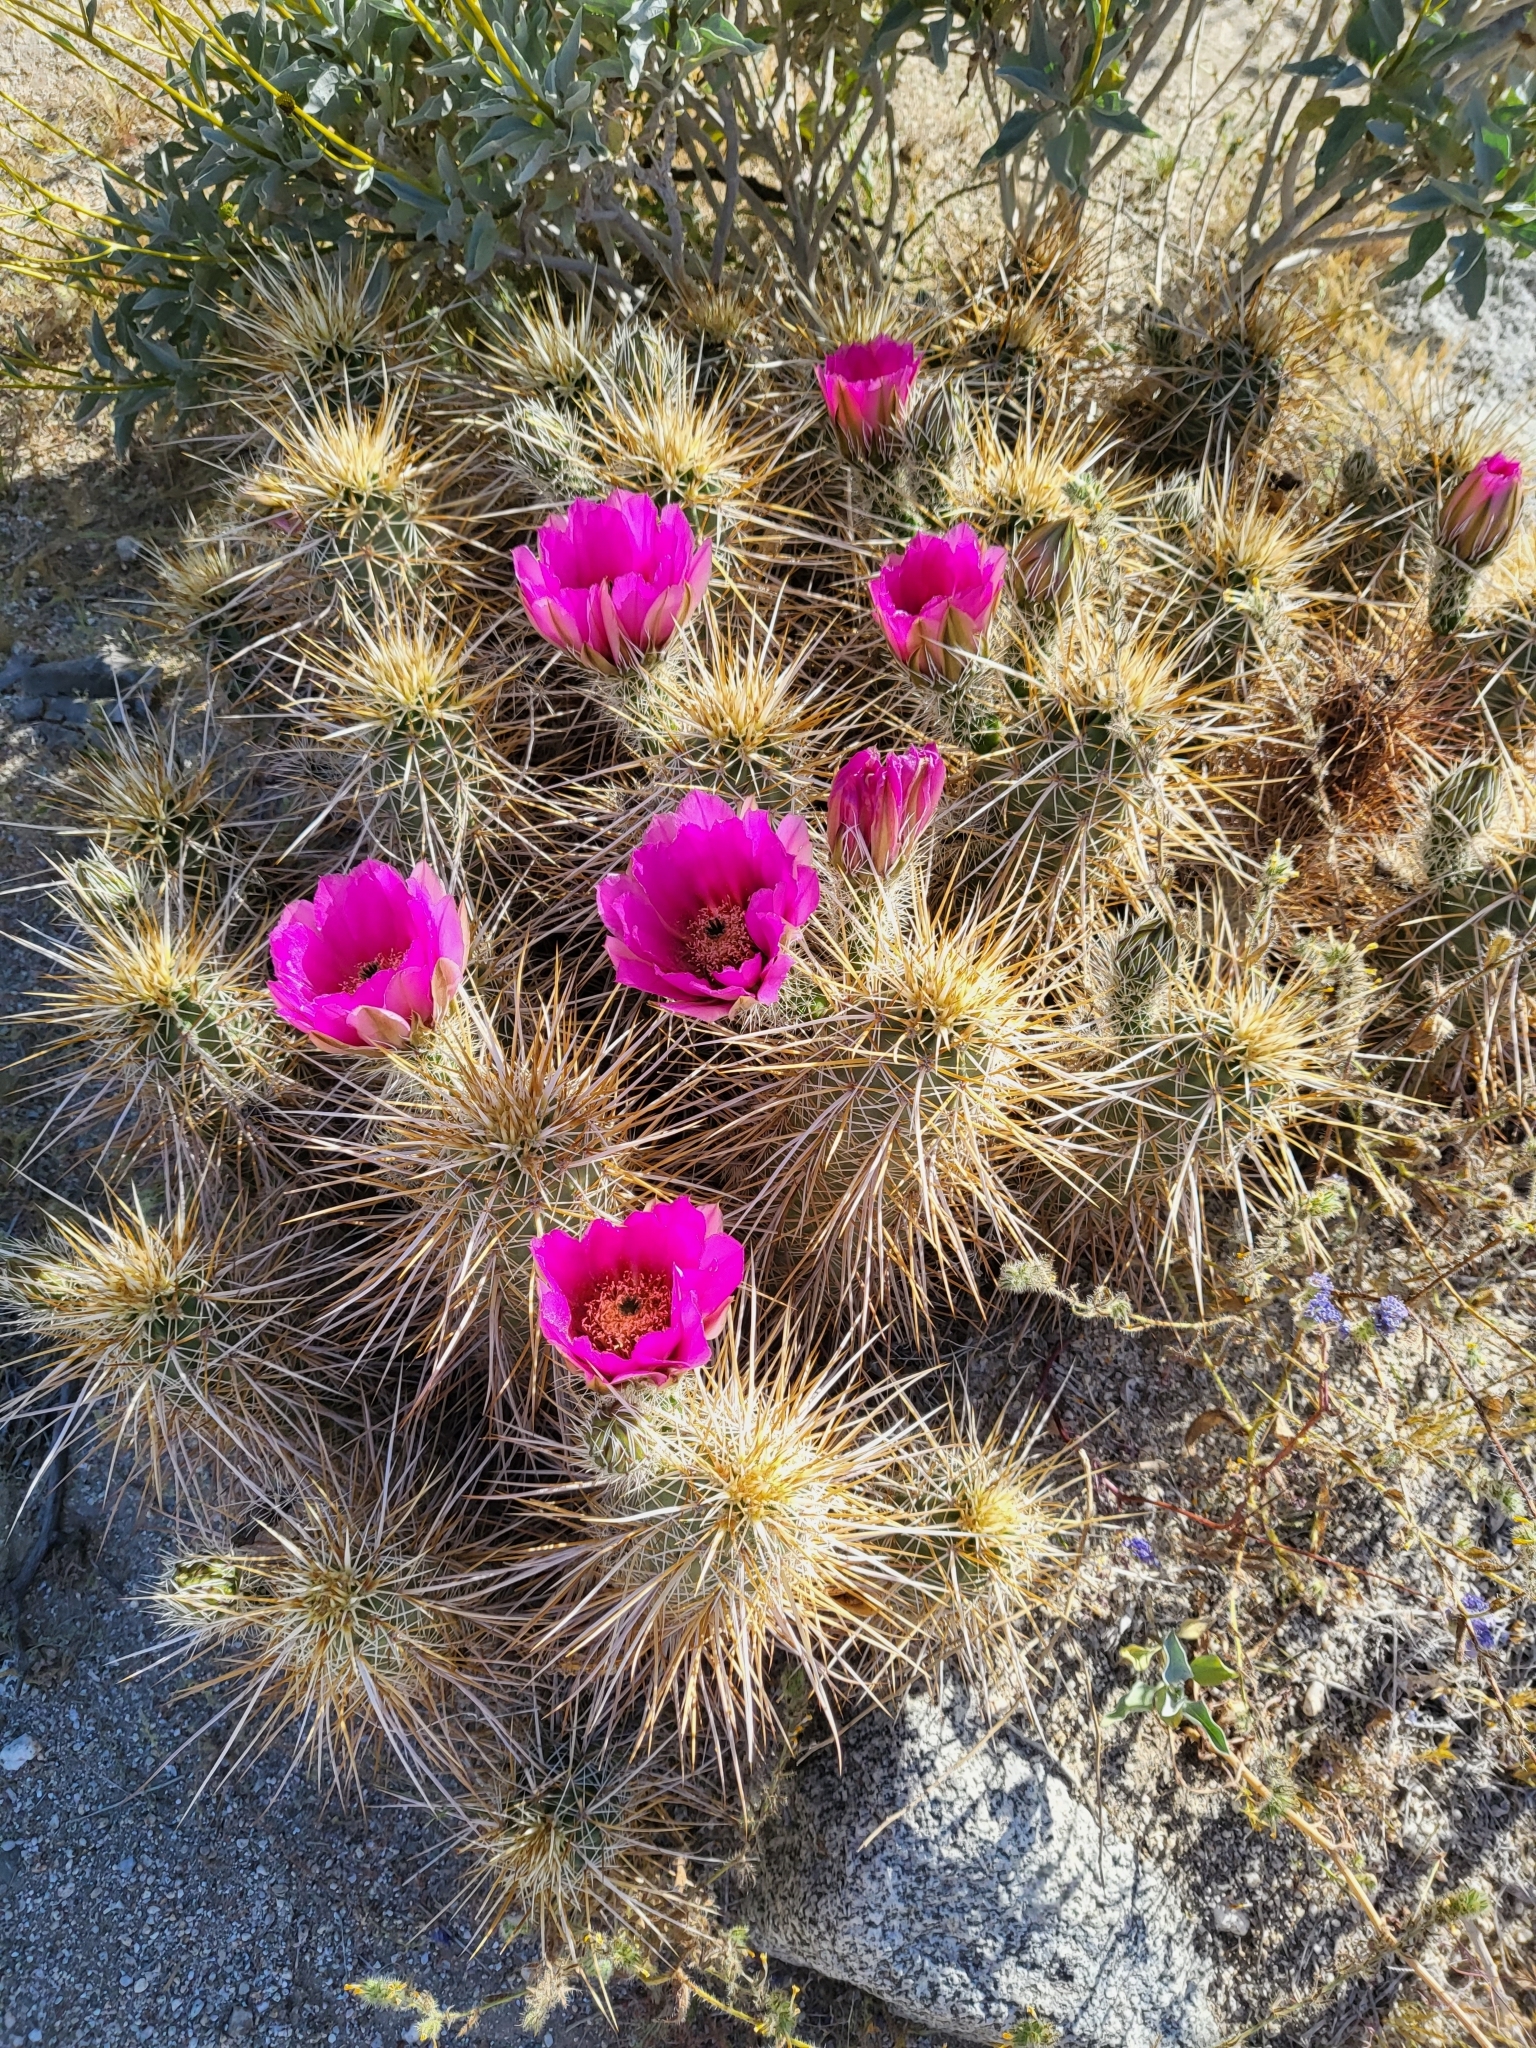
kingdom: Plantae
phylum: Tracheophyta
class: Magnoliopsida
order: Caryophyllales
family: Cactaceae
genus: Echinocereus
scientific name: Echinocereus engelmannii
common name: Engelmann's hedgehog cactus
